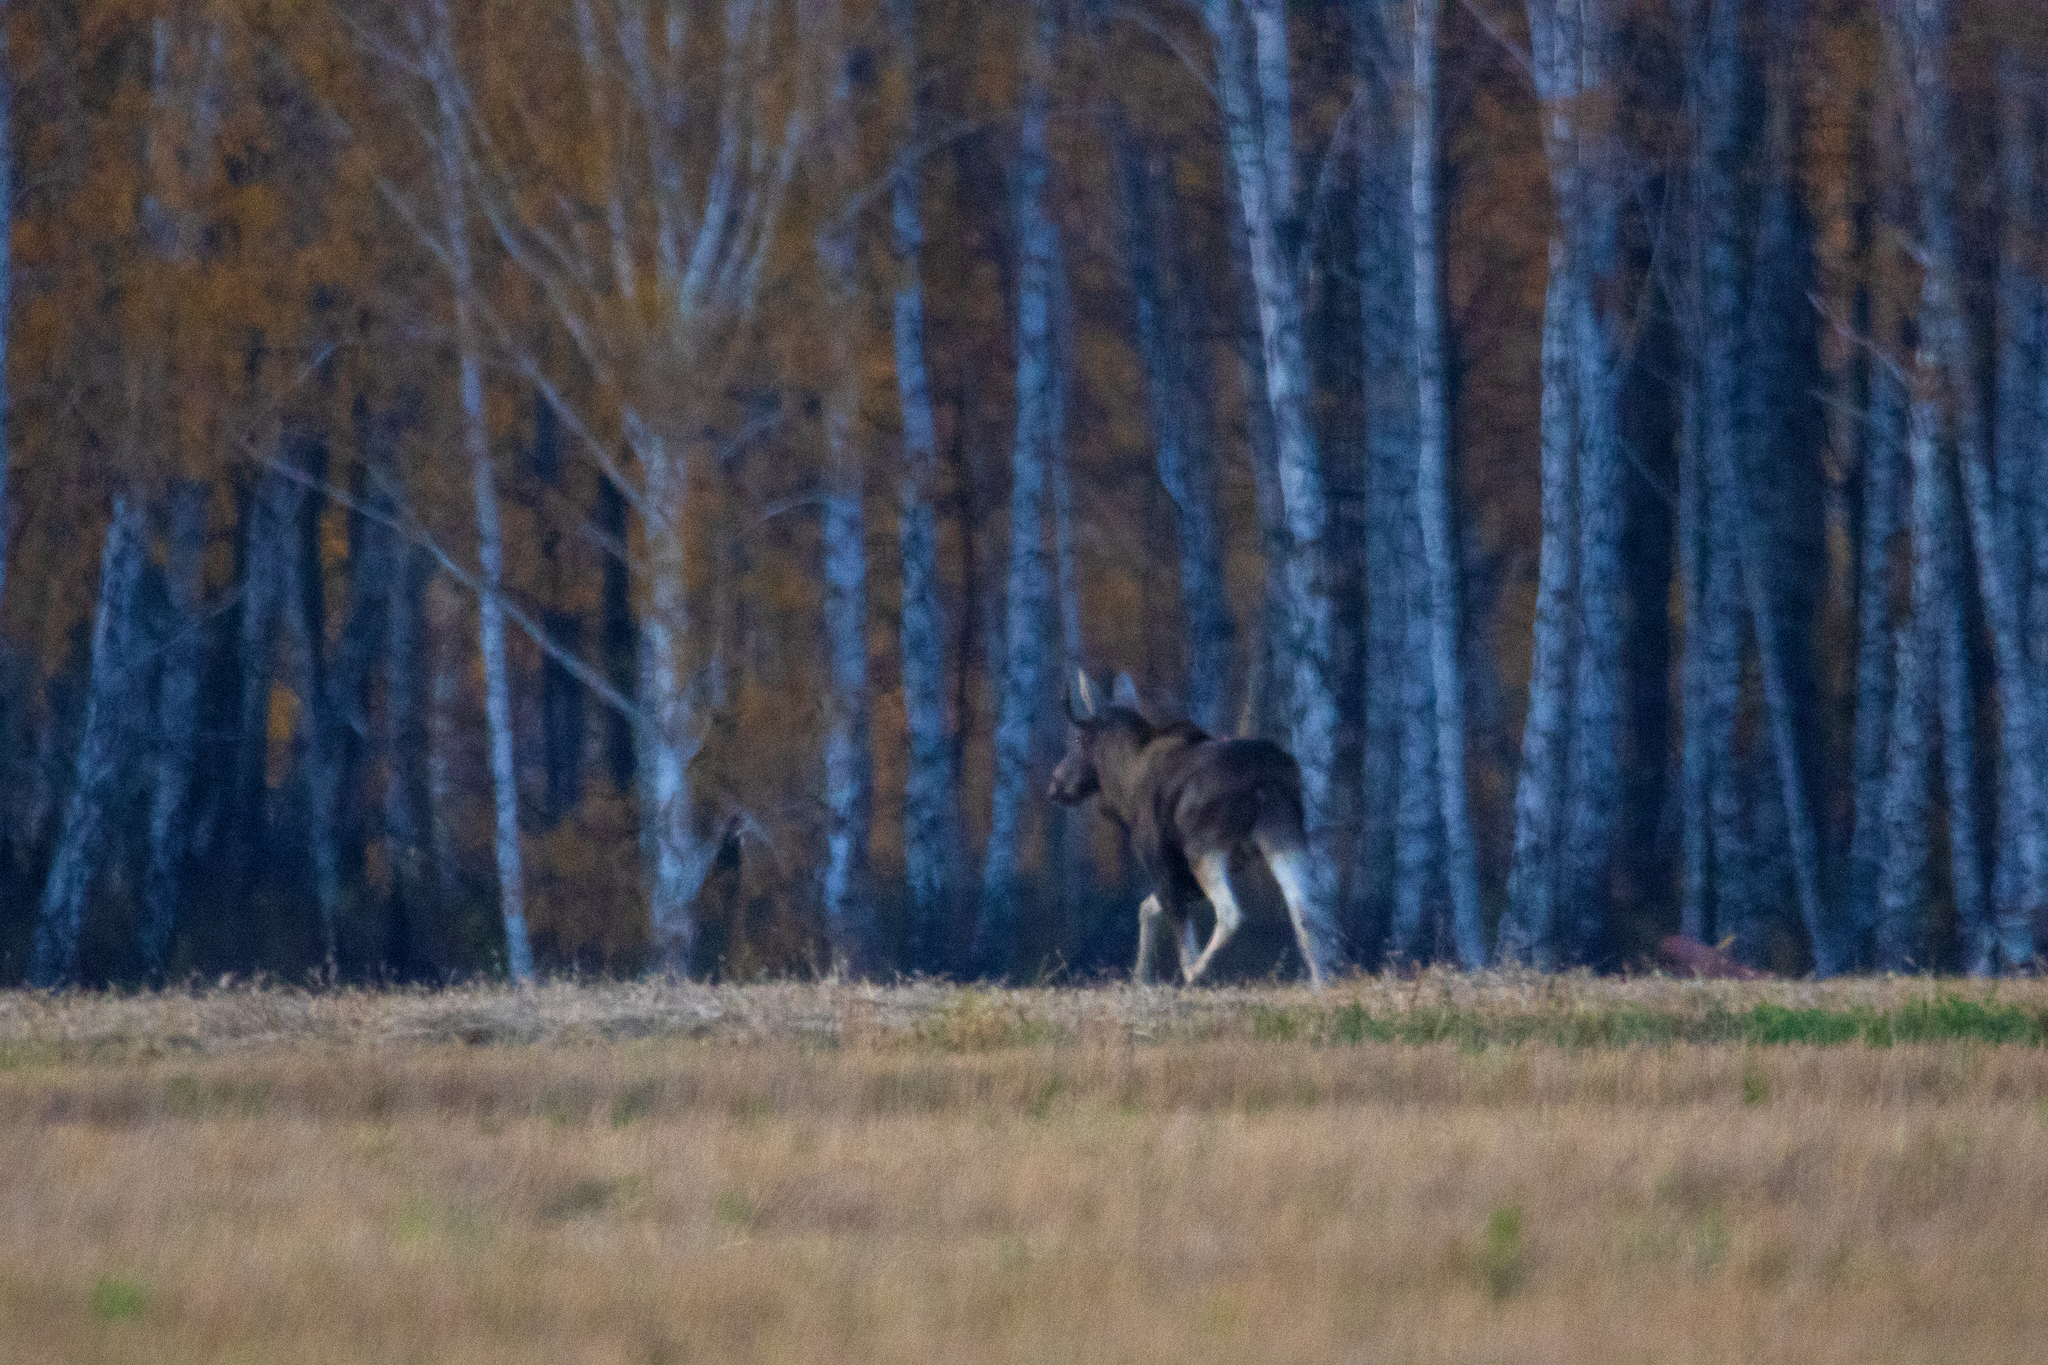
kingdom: Animalia
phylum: Chordata
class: Mammalia
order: Artiodactyla
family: Cervidae
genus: Alces
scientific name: Alces alces
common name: Moose
